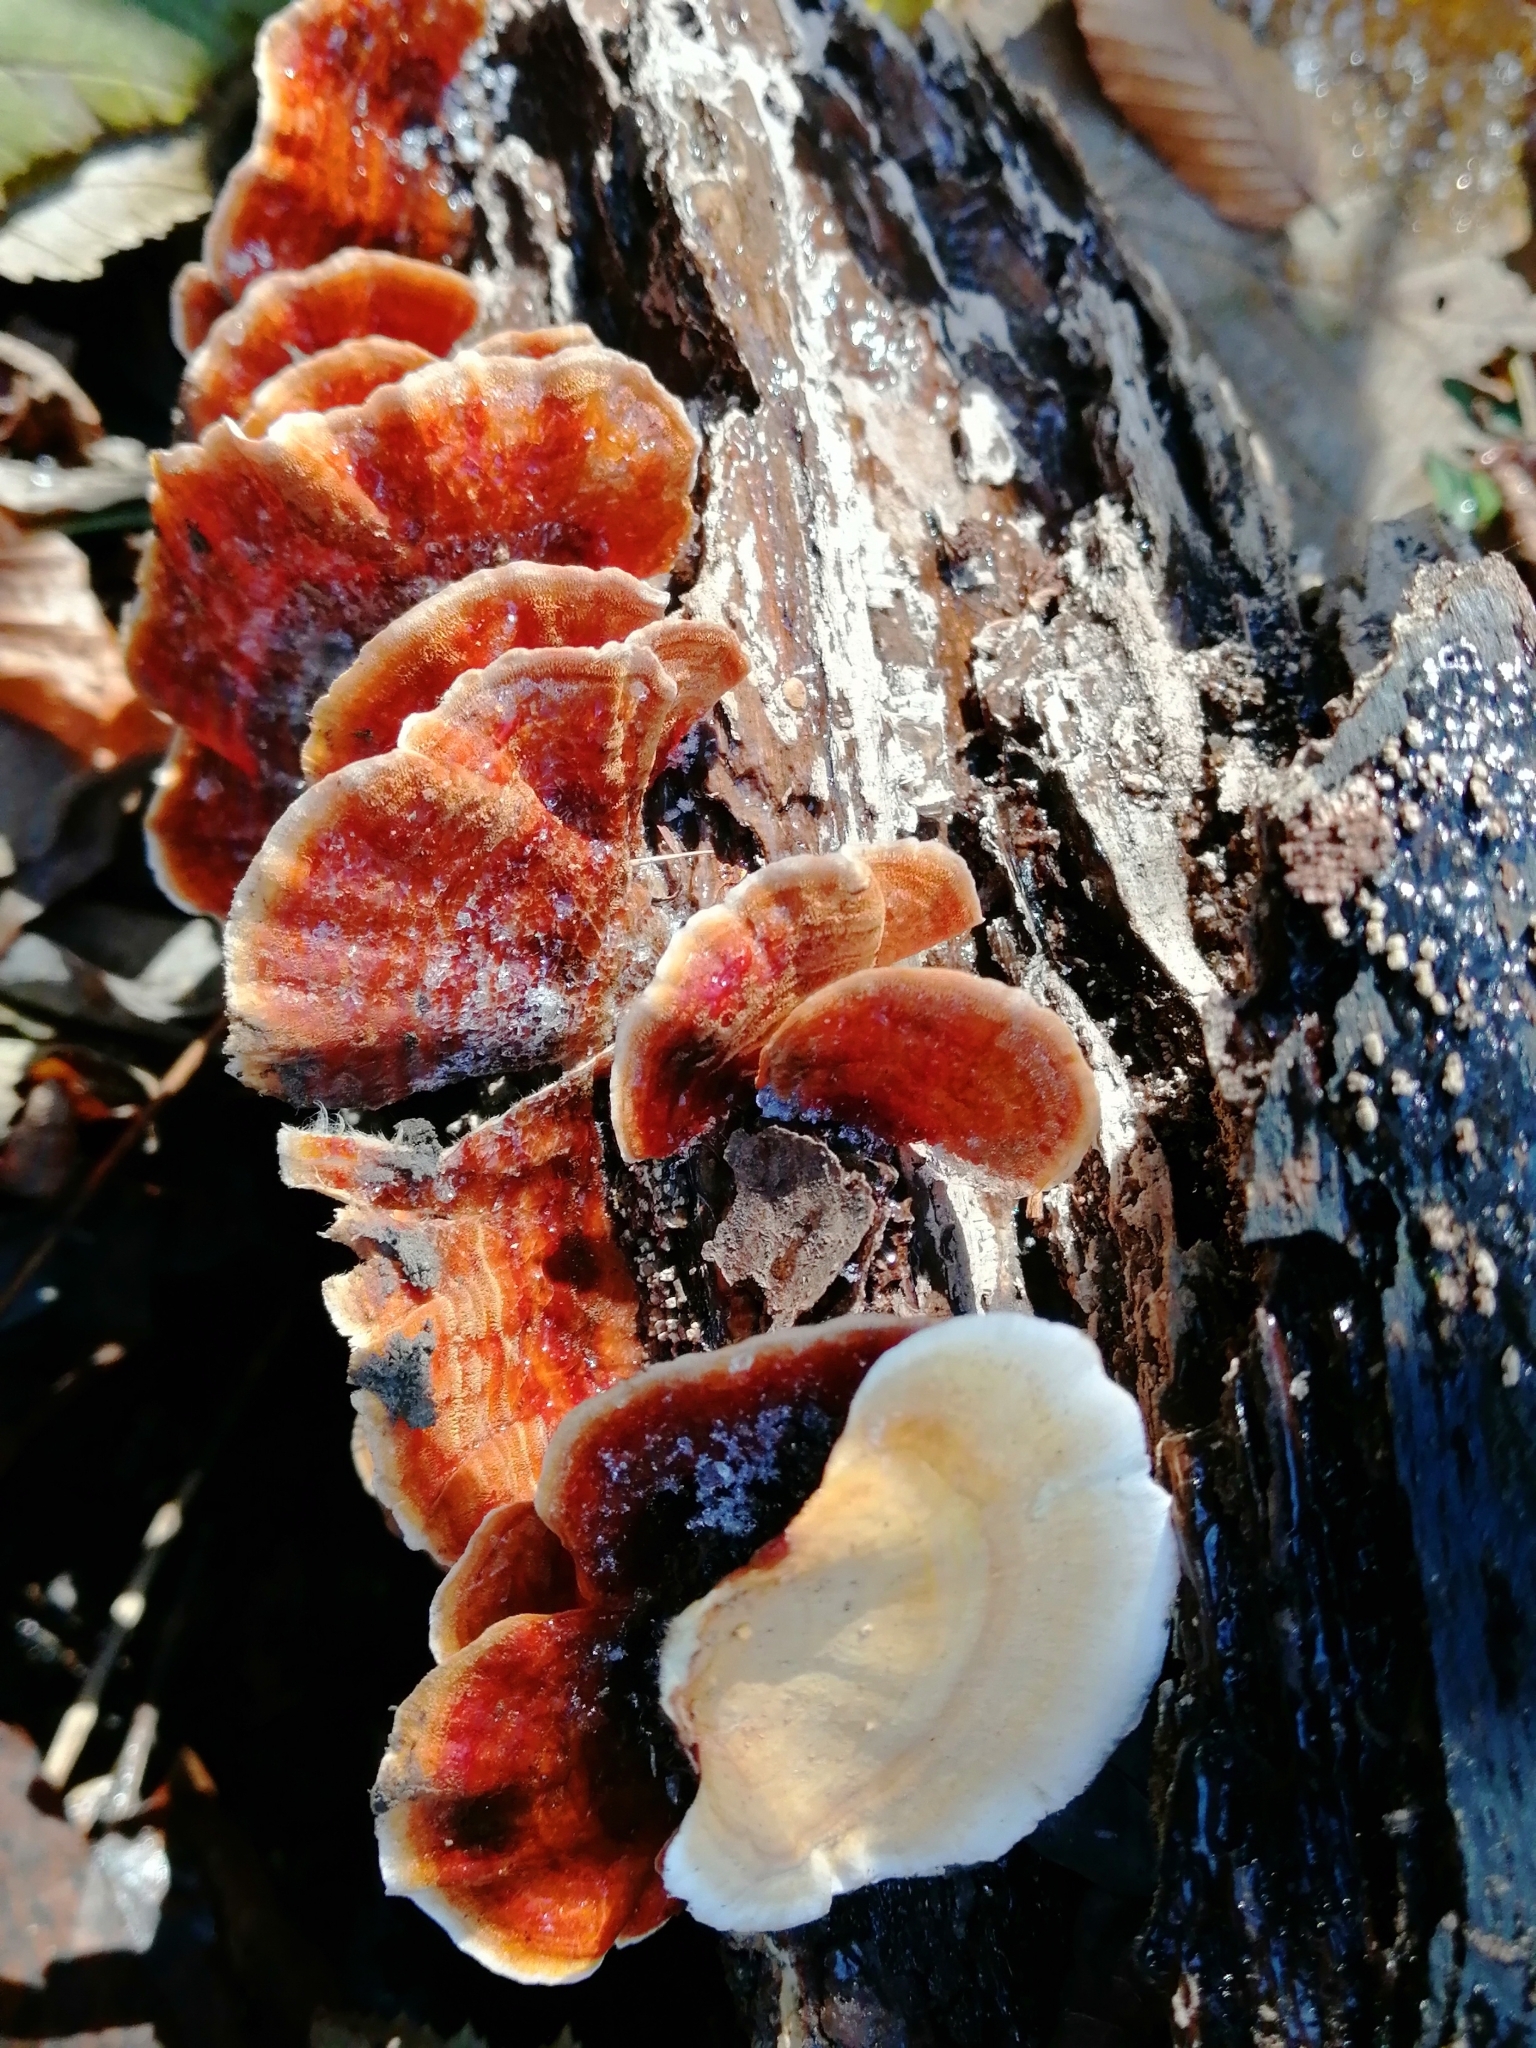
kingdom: Fungi
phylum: Basidiomycota
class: Agaricomycetes
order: Russulales
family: Stereaceae
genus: Stereum
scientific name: Stereum subtomentosum
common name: Yellowing curtain crust
